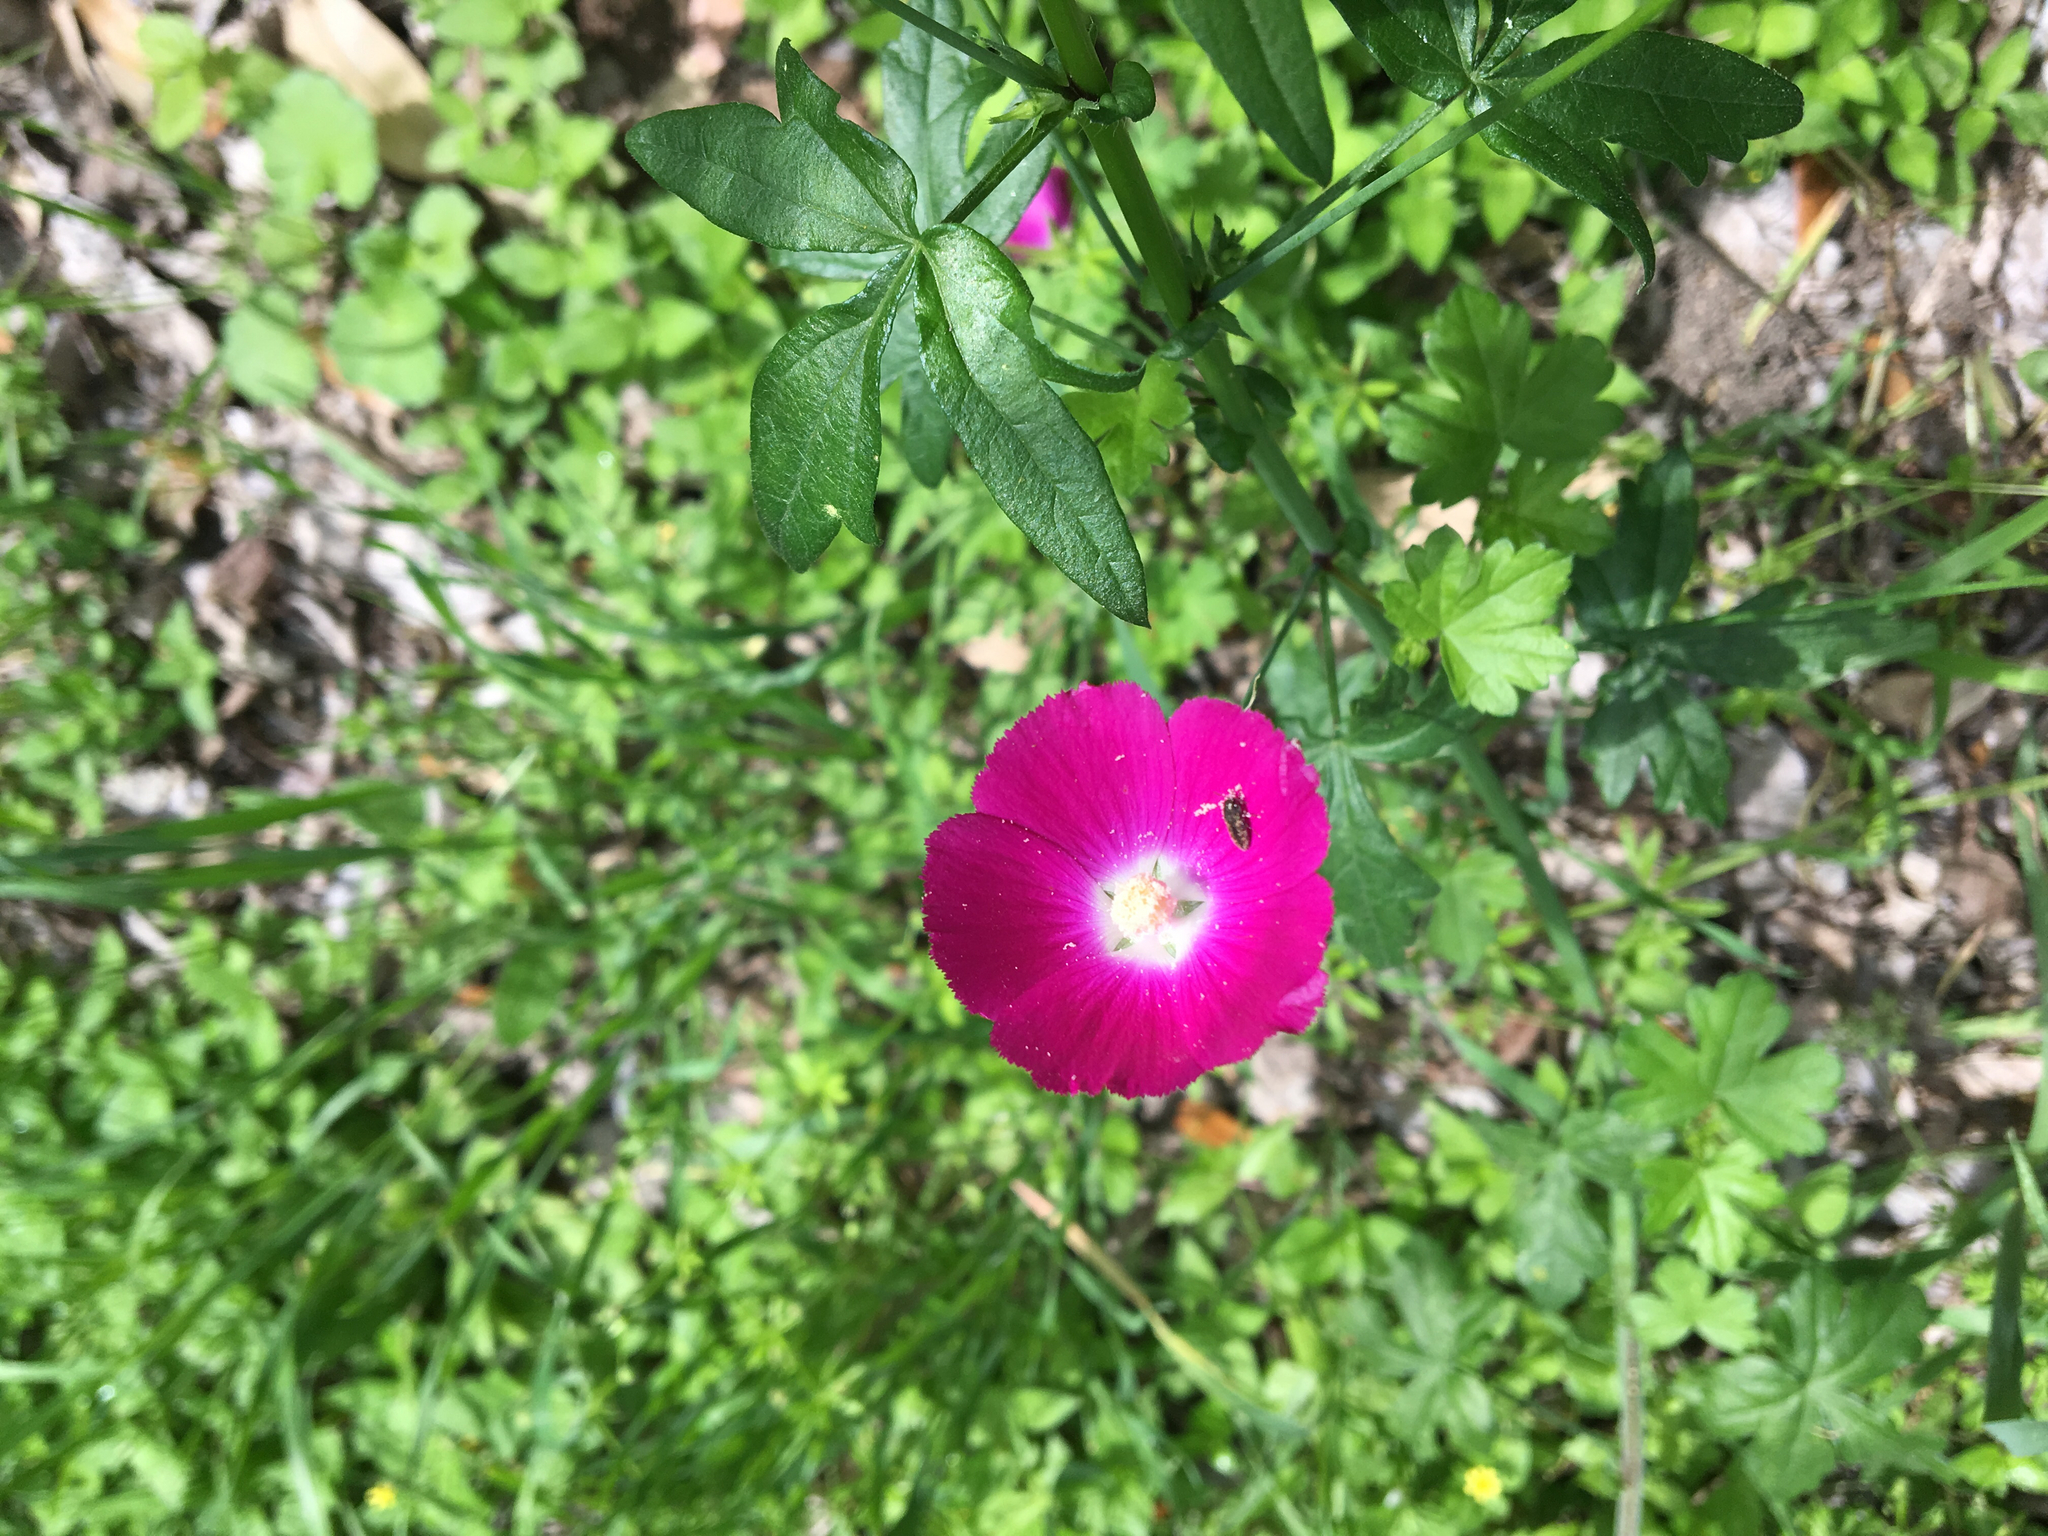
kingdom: Plantae
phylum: Tracheophyta
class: Magnoliopsida
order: Malvales
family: Malvaceae
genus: Callirhoe
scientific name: Callirhoe leiocarpa
